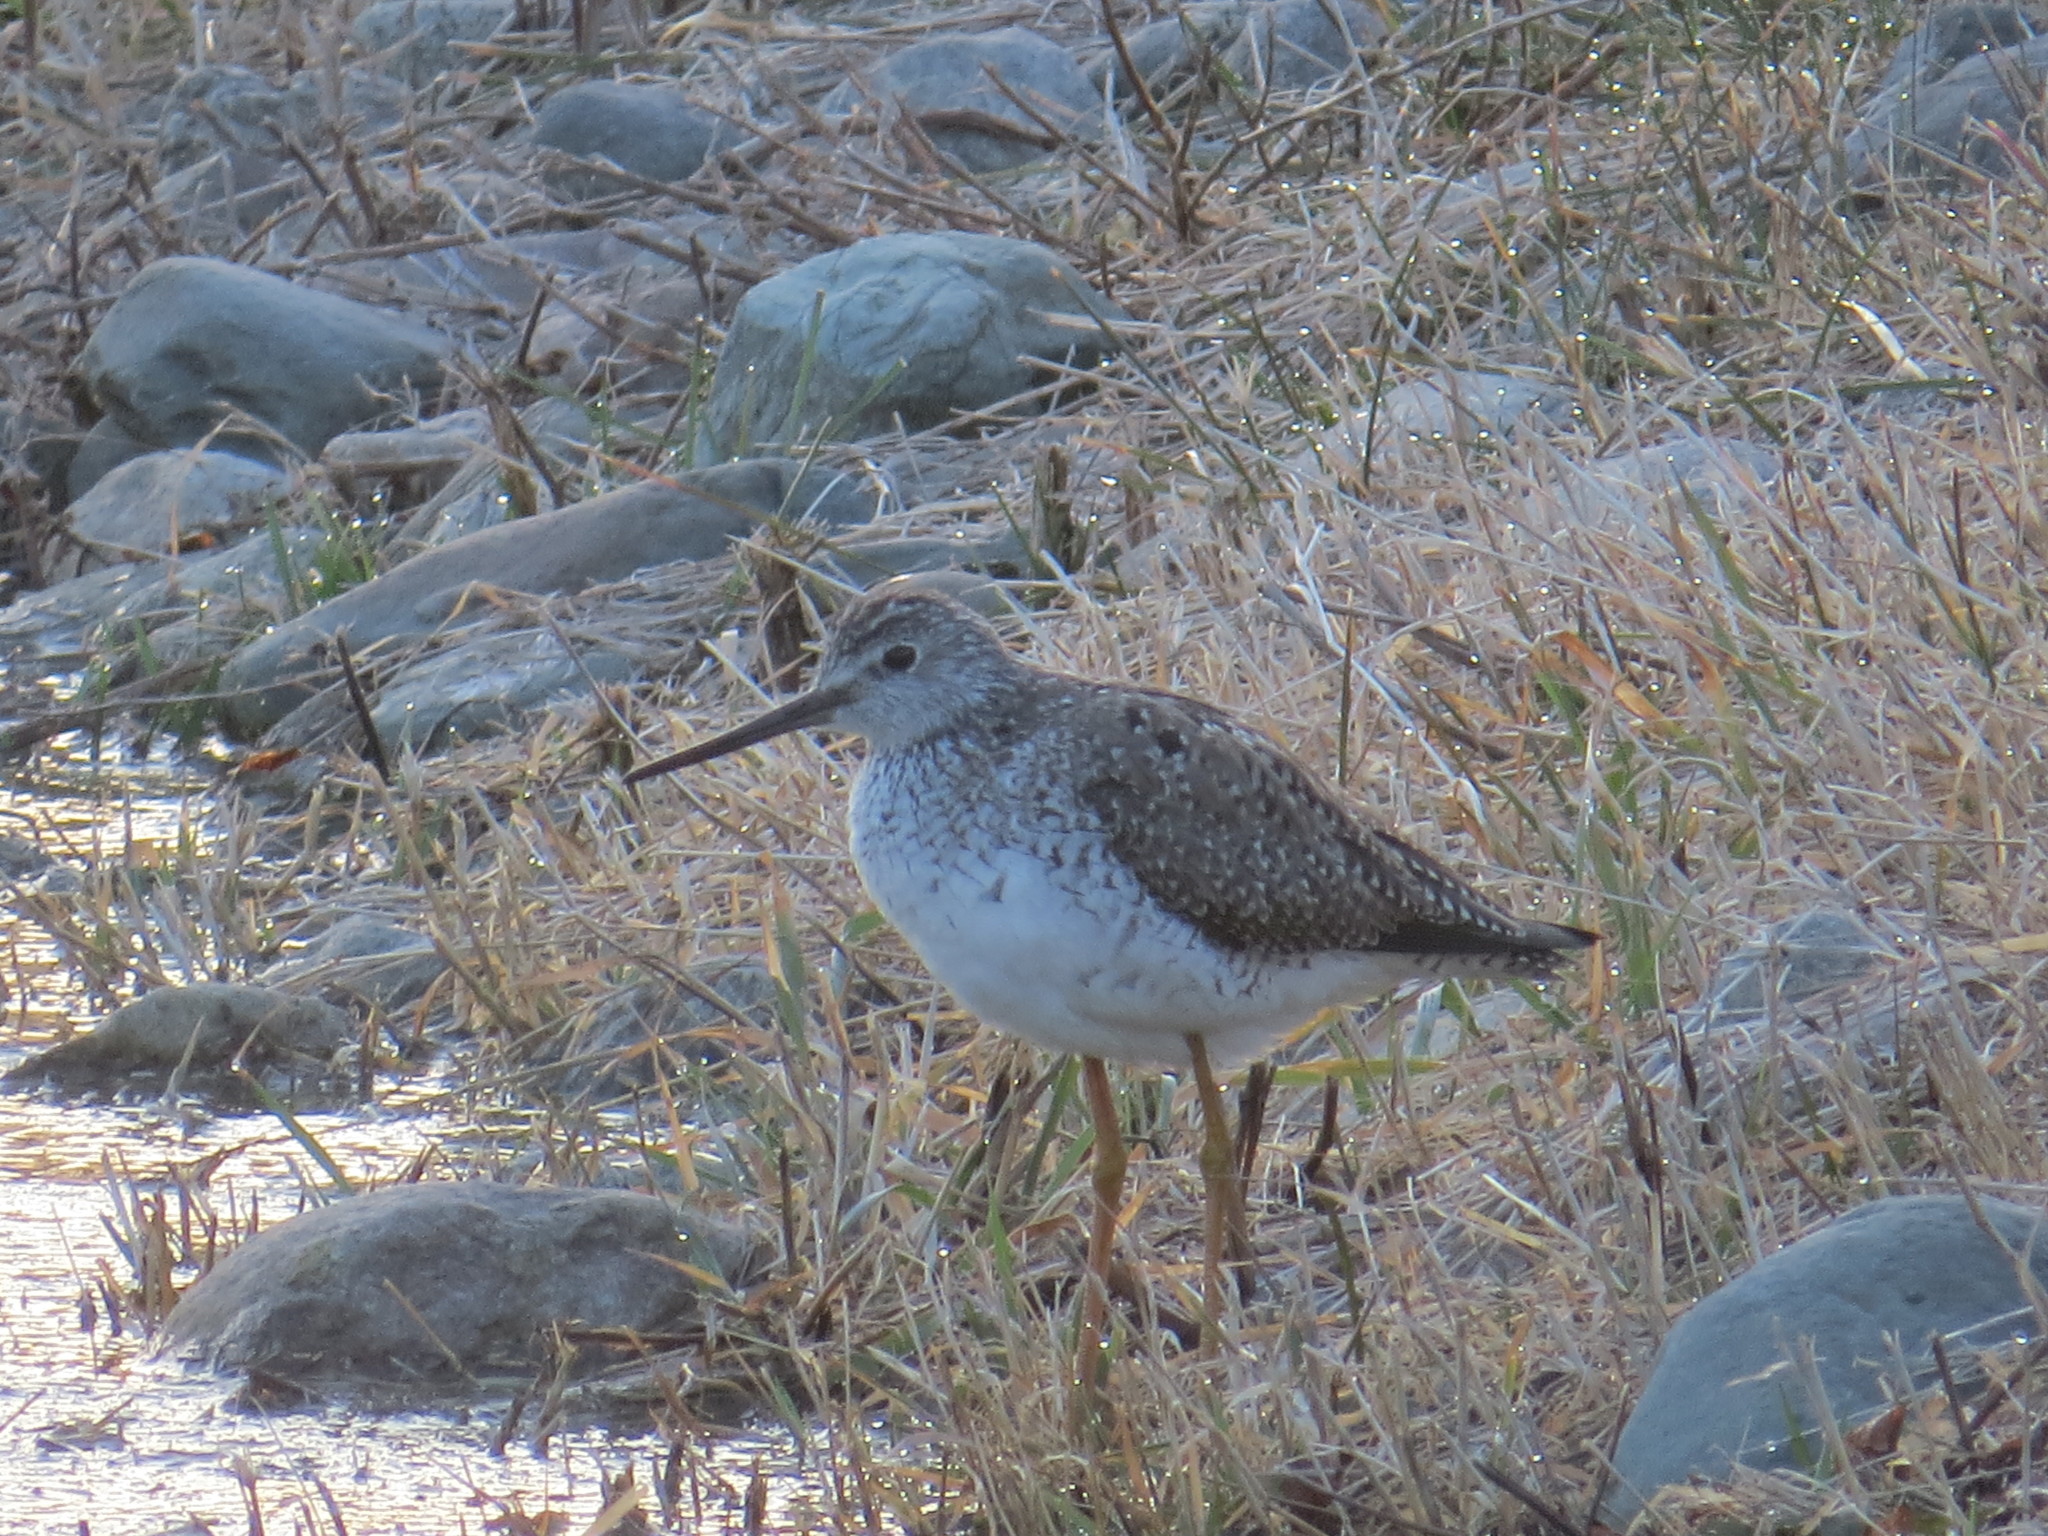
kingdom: Animalia
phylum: Chordata
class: Aves
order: Charadriiformes
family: Scolopacidae
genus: Tringa
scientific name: Tringa melanoleuca
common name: Greater yellowlegs
